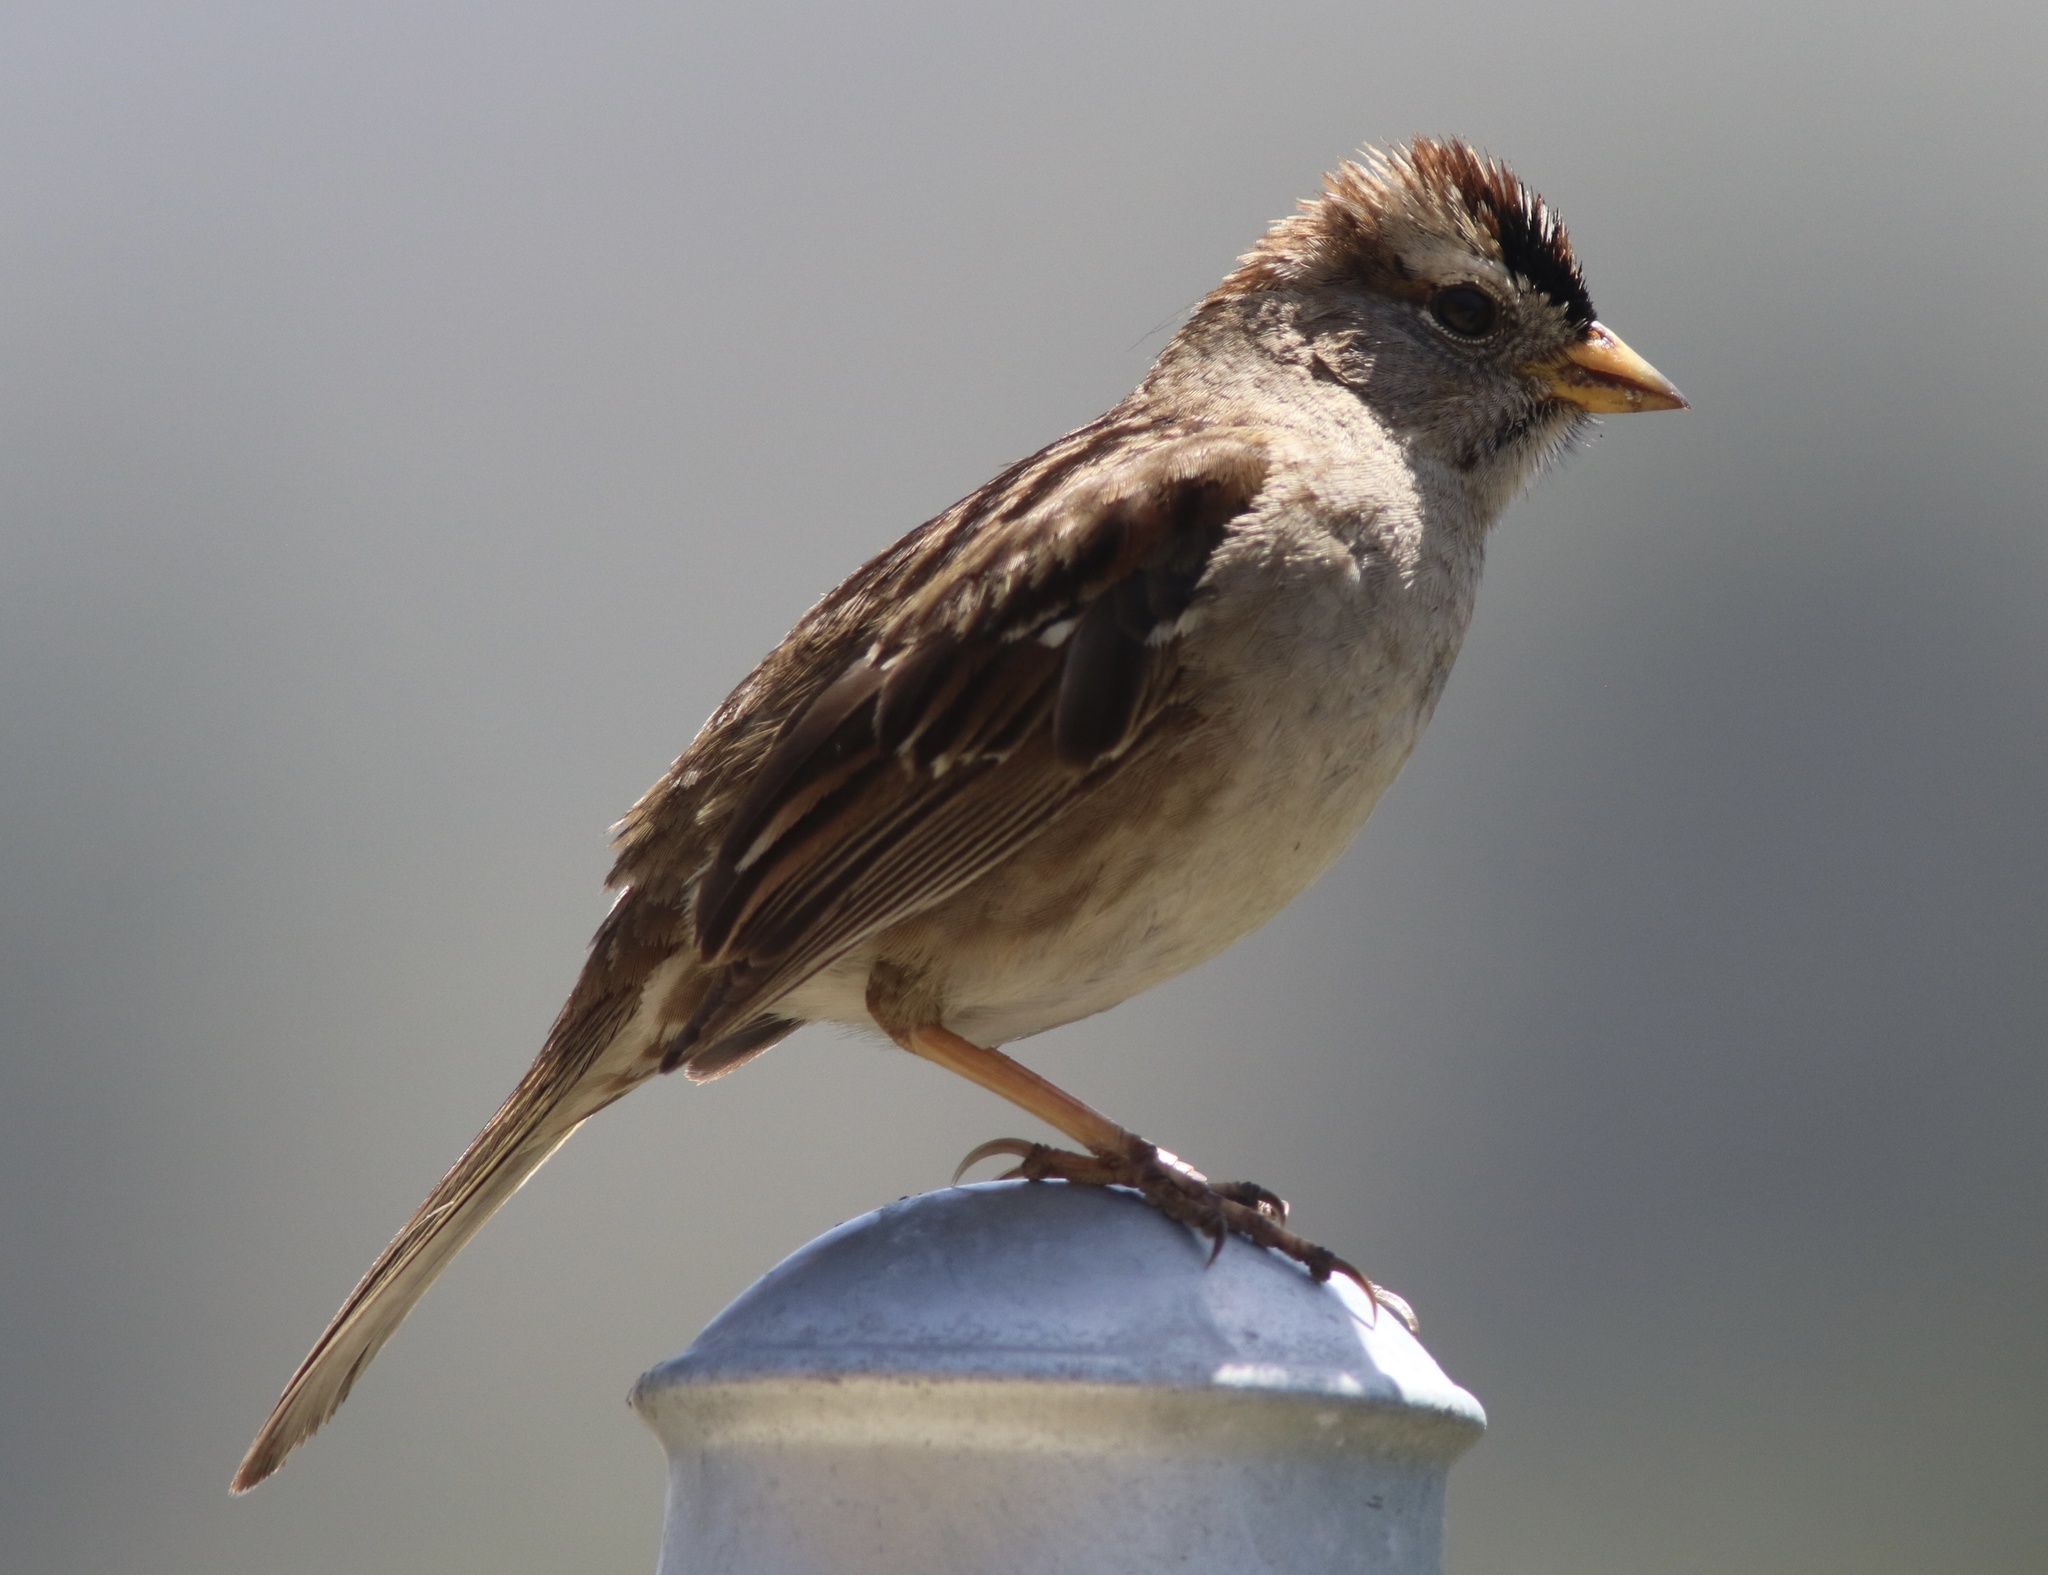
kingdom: Animalia
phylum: Chordata
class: Aves
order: Passeriformes
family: Passerellidae
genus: Zonotrichia
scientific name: Zonotrichia leucophrys
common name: White-crowned sparrow
